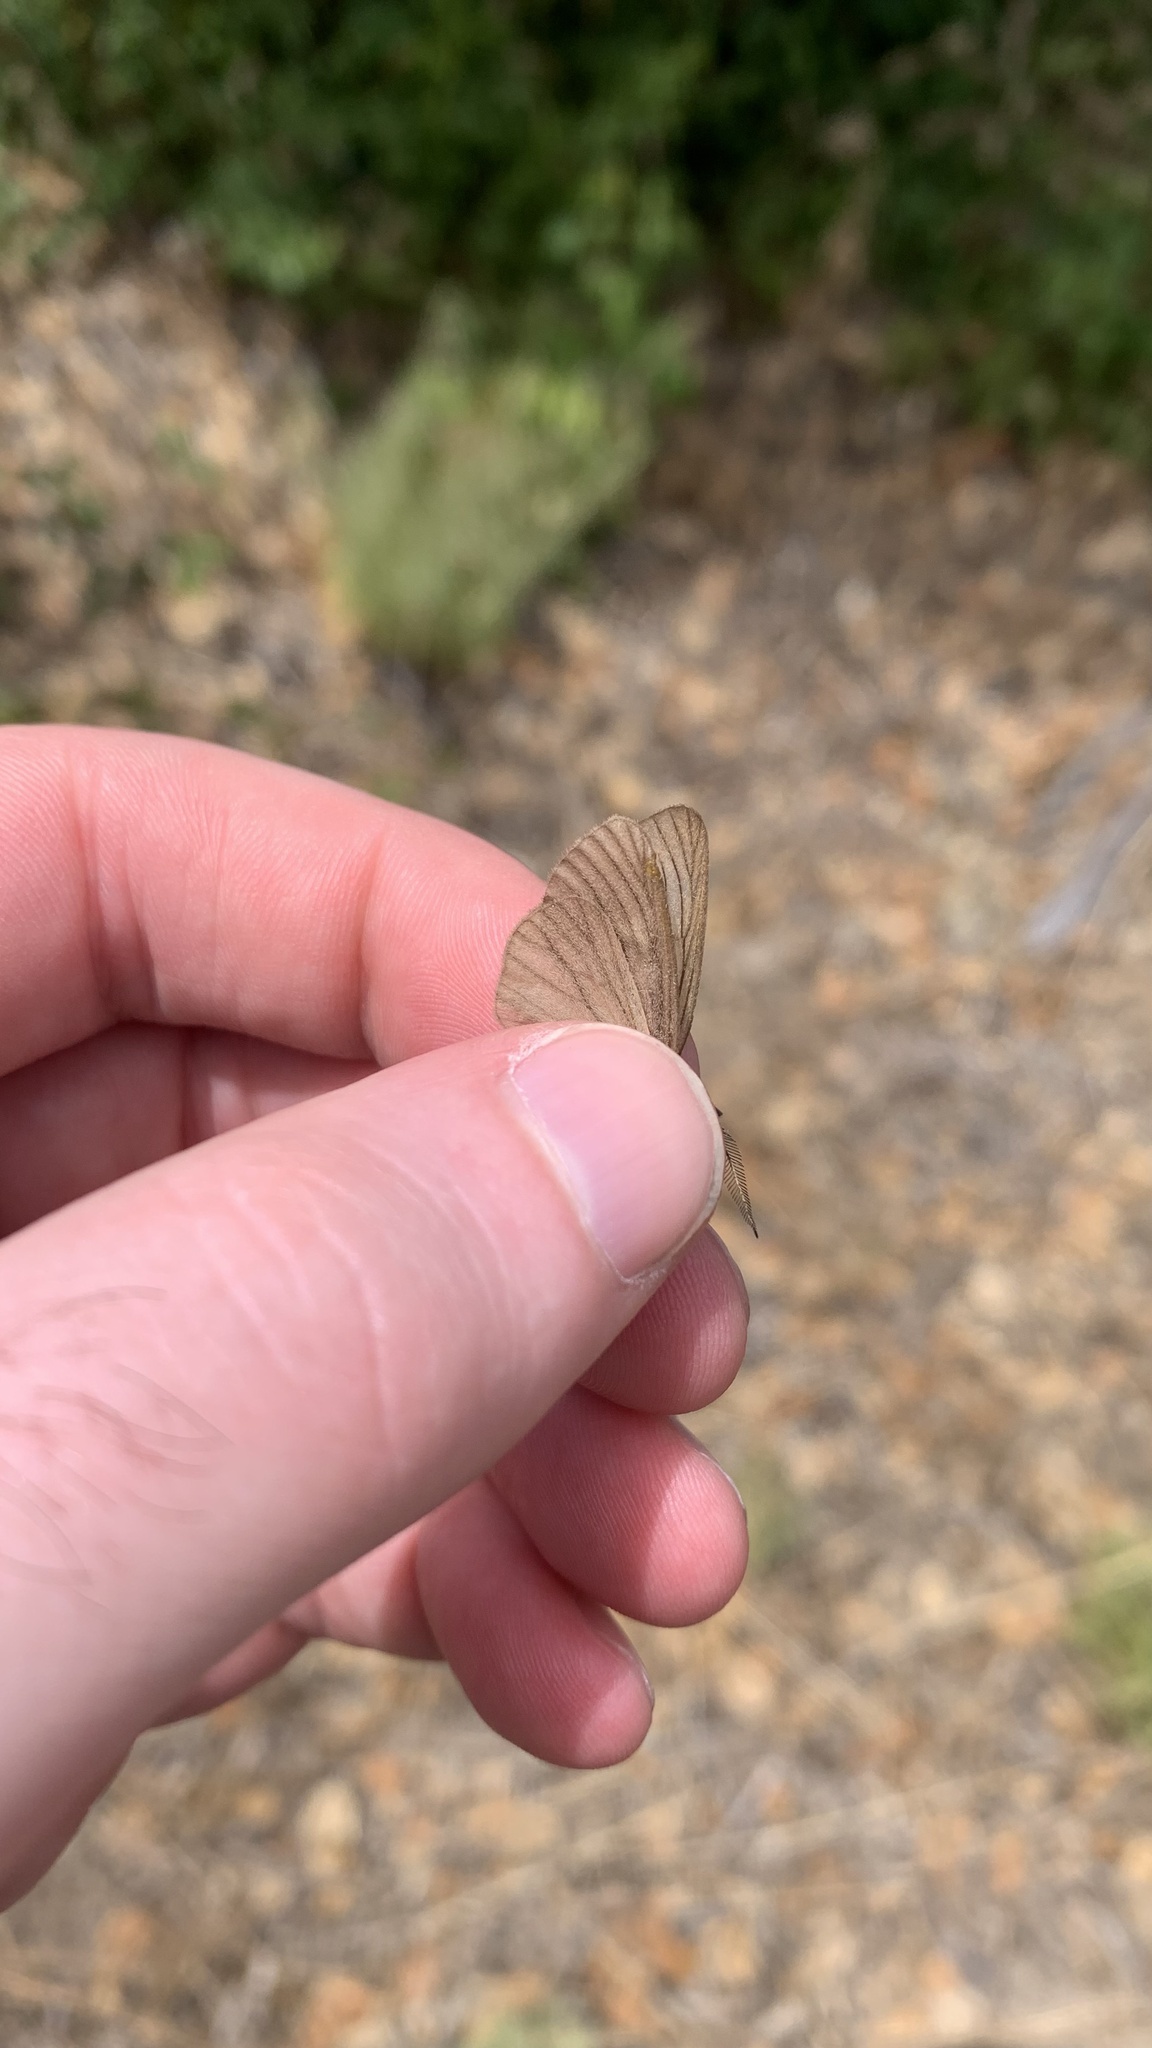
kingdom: Animalia
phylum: Arthropoda
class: Insecta
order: Lepidoptera
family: Notodontidae
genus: Phryganidia
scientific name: Phryganidia californica
